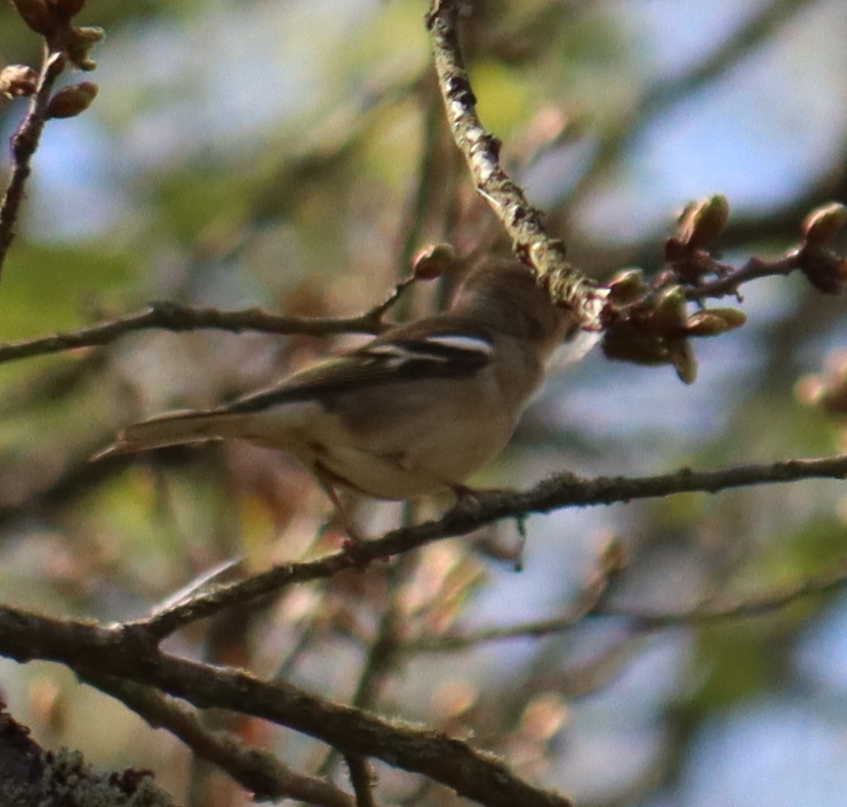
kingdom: Animalia
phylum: Chordata
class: Aves
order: Passeriformes
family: Fringillidae
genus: Fringilla
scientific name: Fringilla coelebs
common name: Common chaffinch
